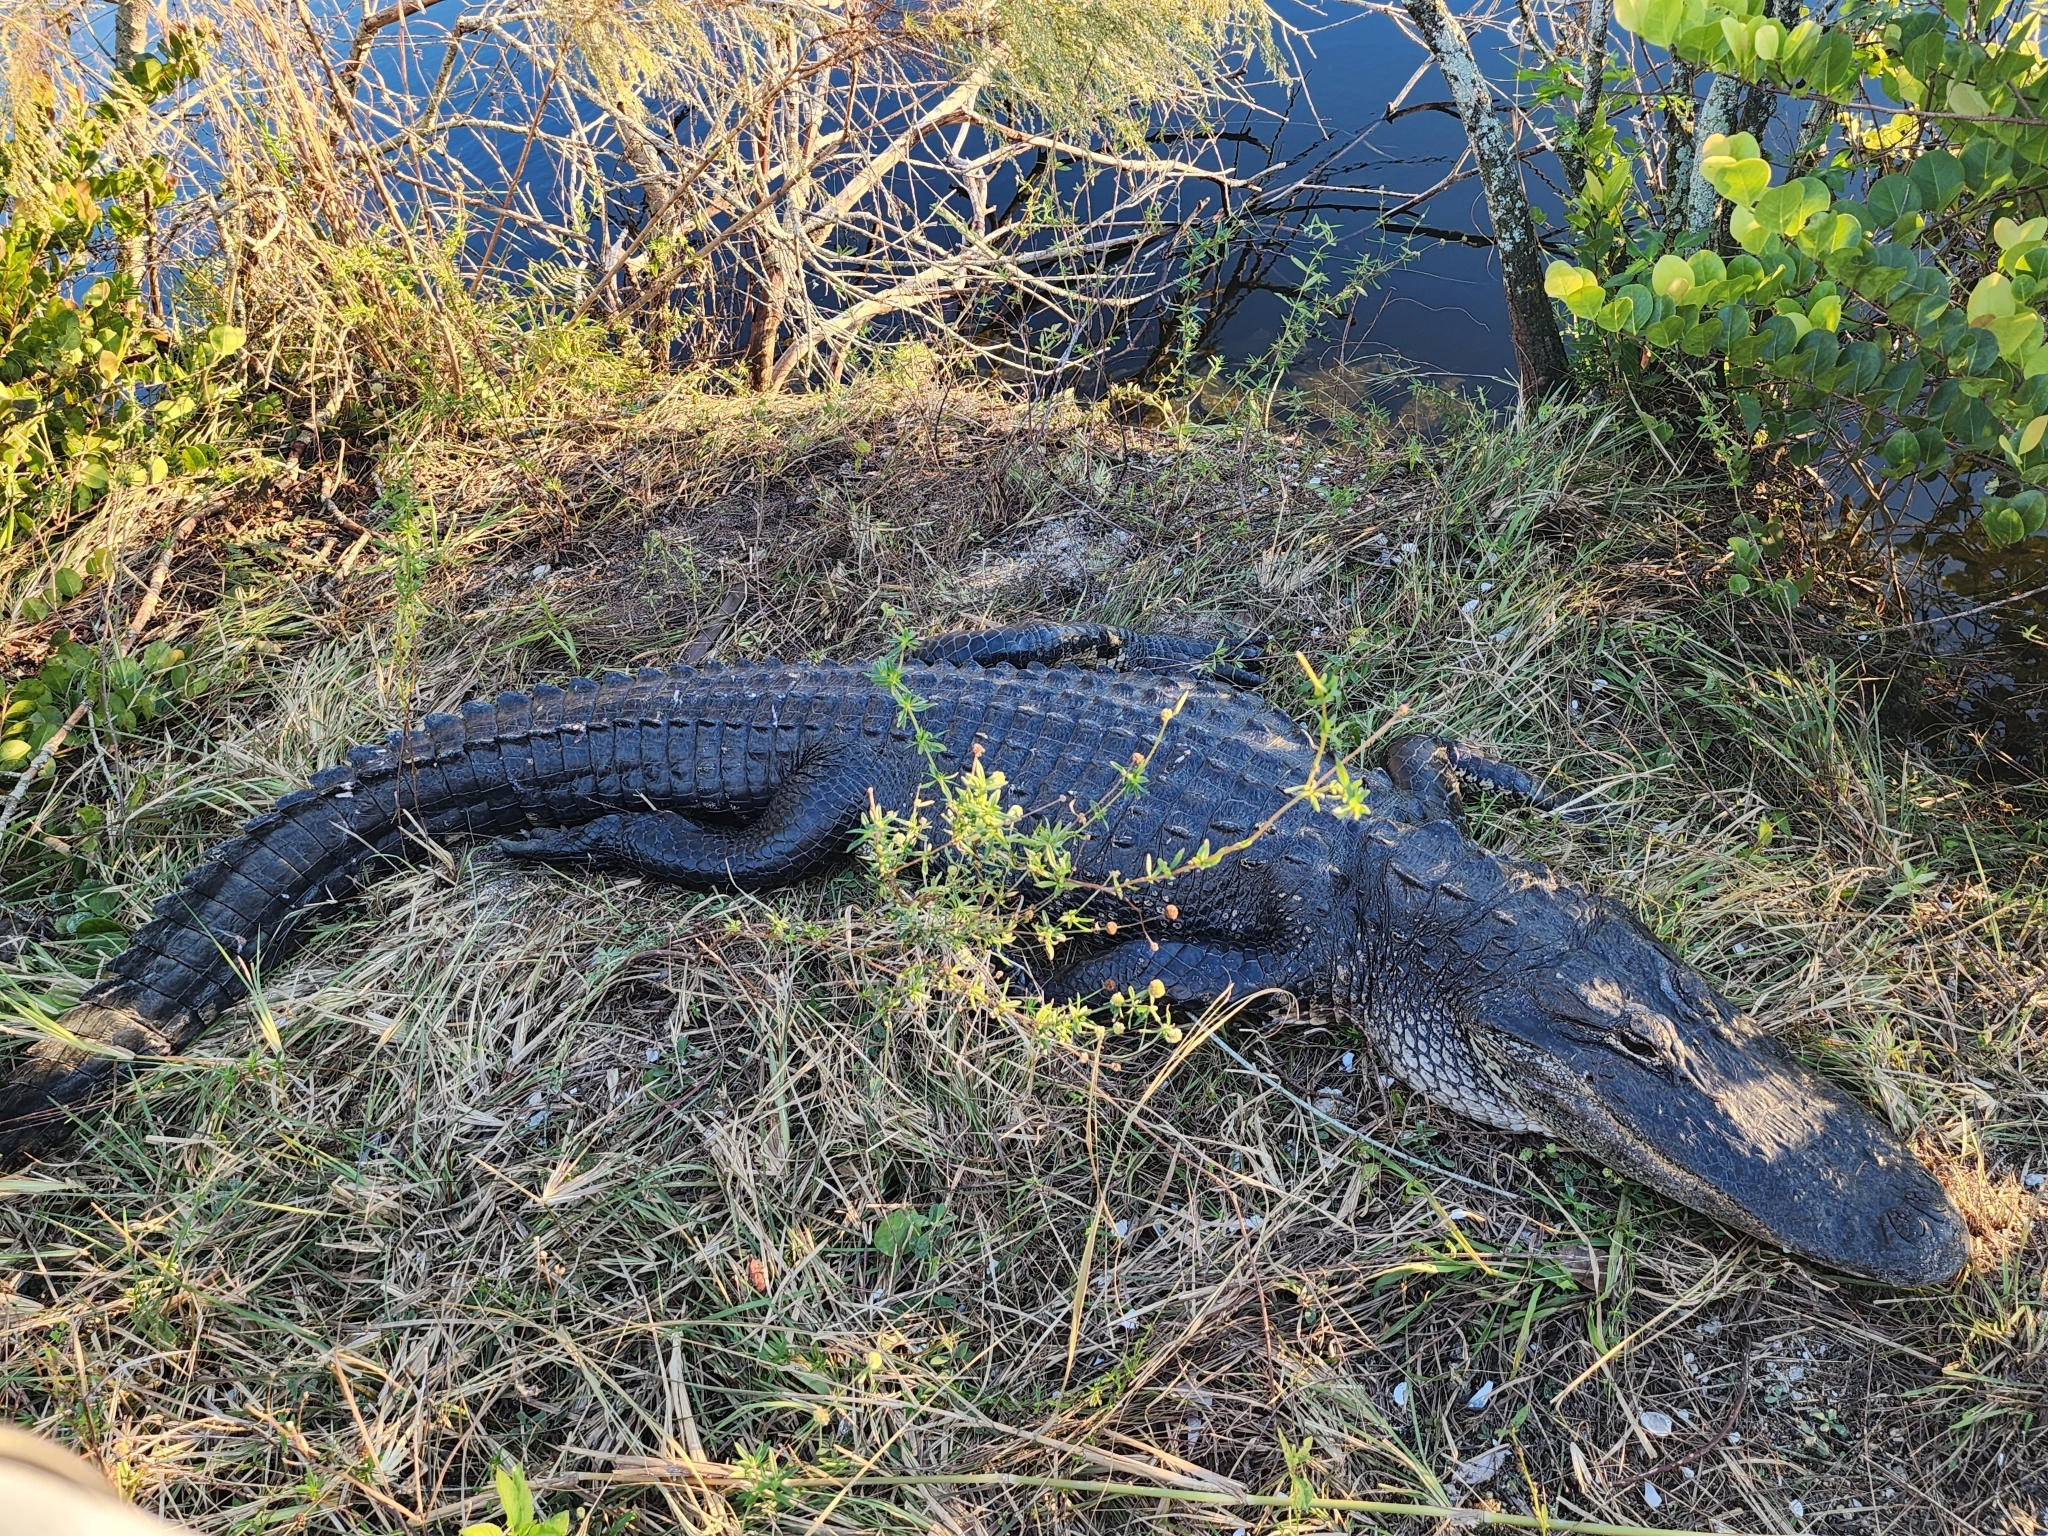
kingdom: Animalia
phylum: Chordata
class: Crocodylia
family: Alligatoridae
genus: Alligator
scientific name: Alligator mississippiensis
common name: American alligator
